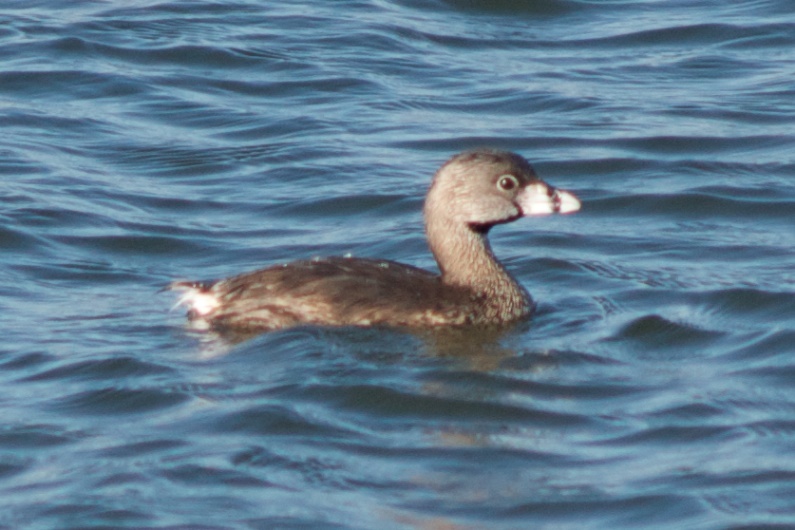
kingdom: Animalia
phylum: Chordata
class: Aves
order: Podicipediformes
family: Podicipedidae
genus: Podilymbus
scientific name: Podilymbus podiceps
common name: Pied-billed grebe
